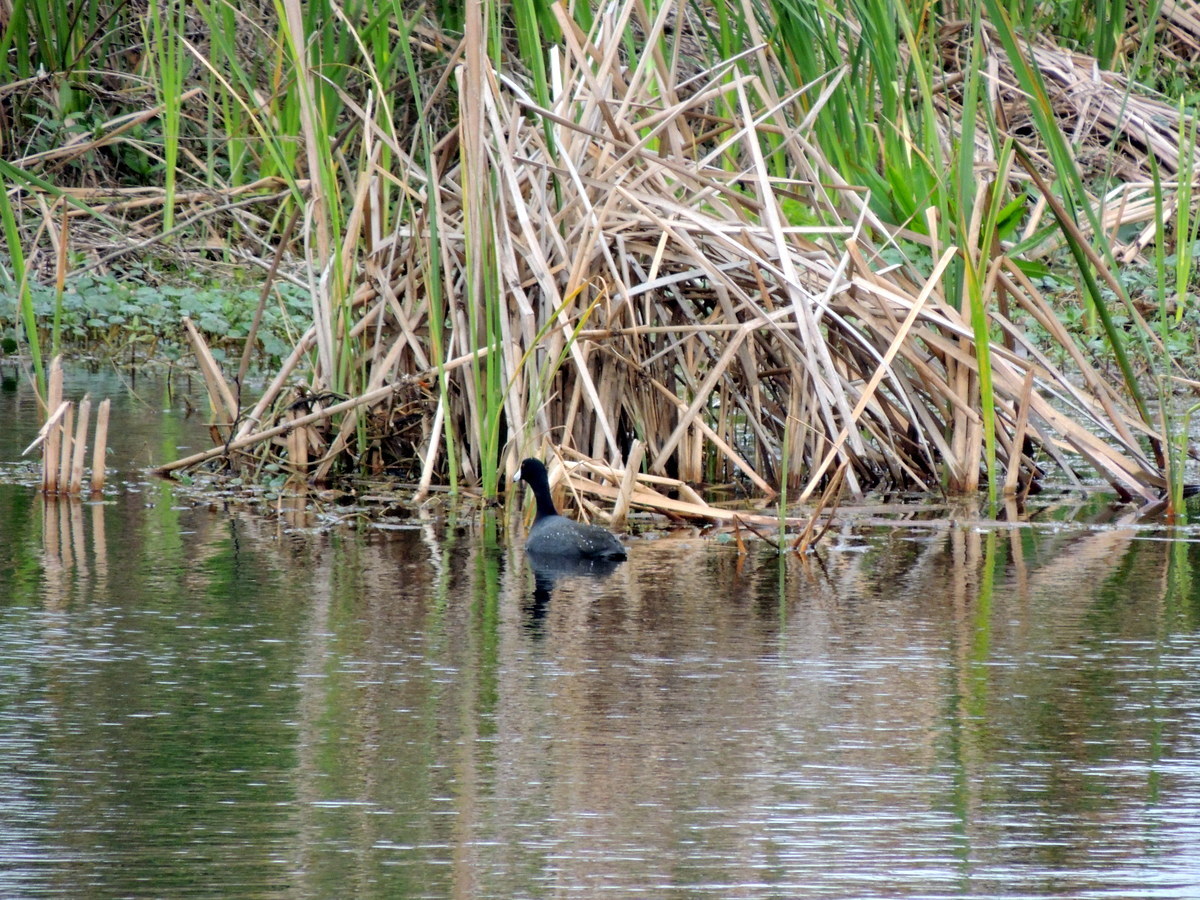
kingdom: Animalia
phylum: Chordata
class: Aves
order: Gruiformes
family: Rallidae
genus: Fulica
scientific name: Fulica americana
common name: American coot
